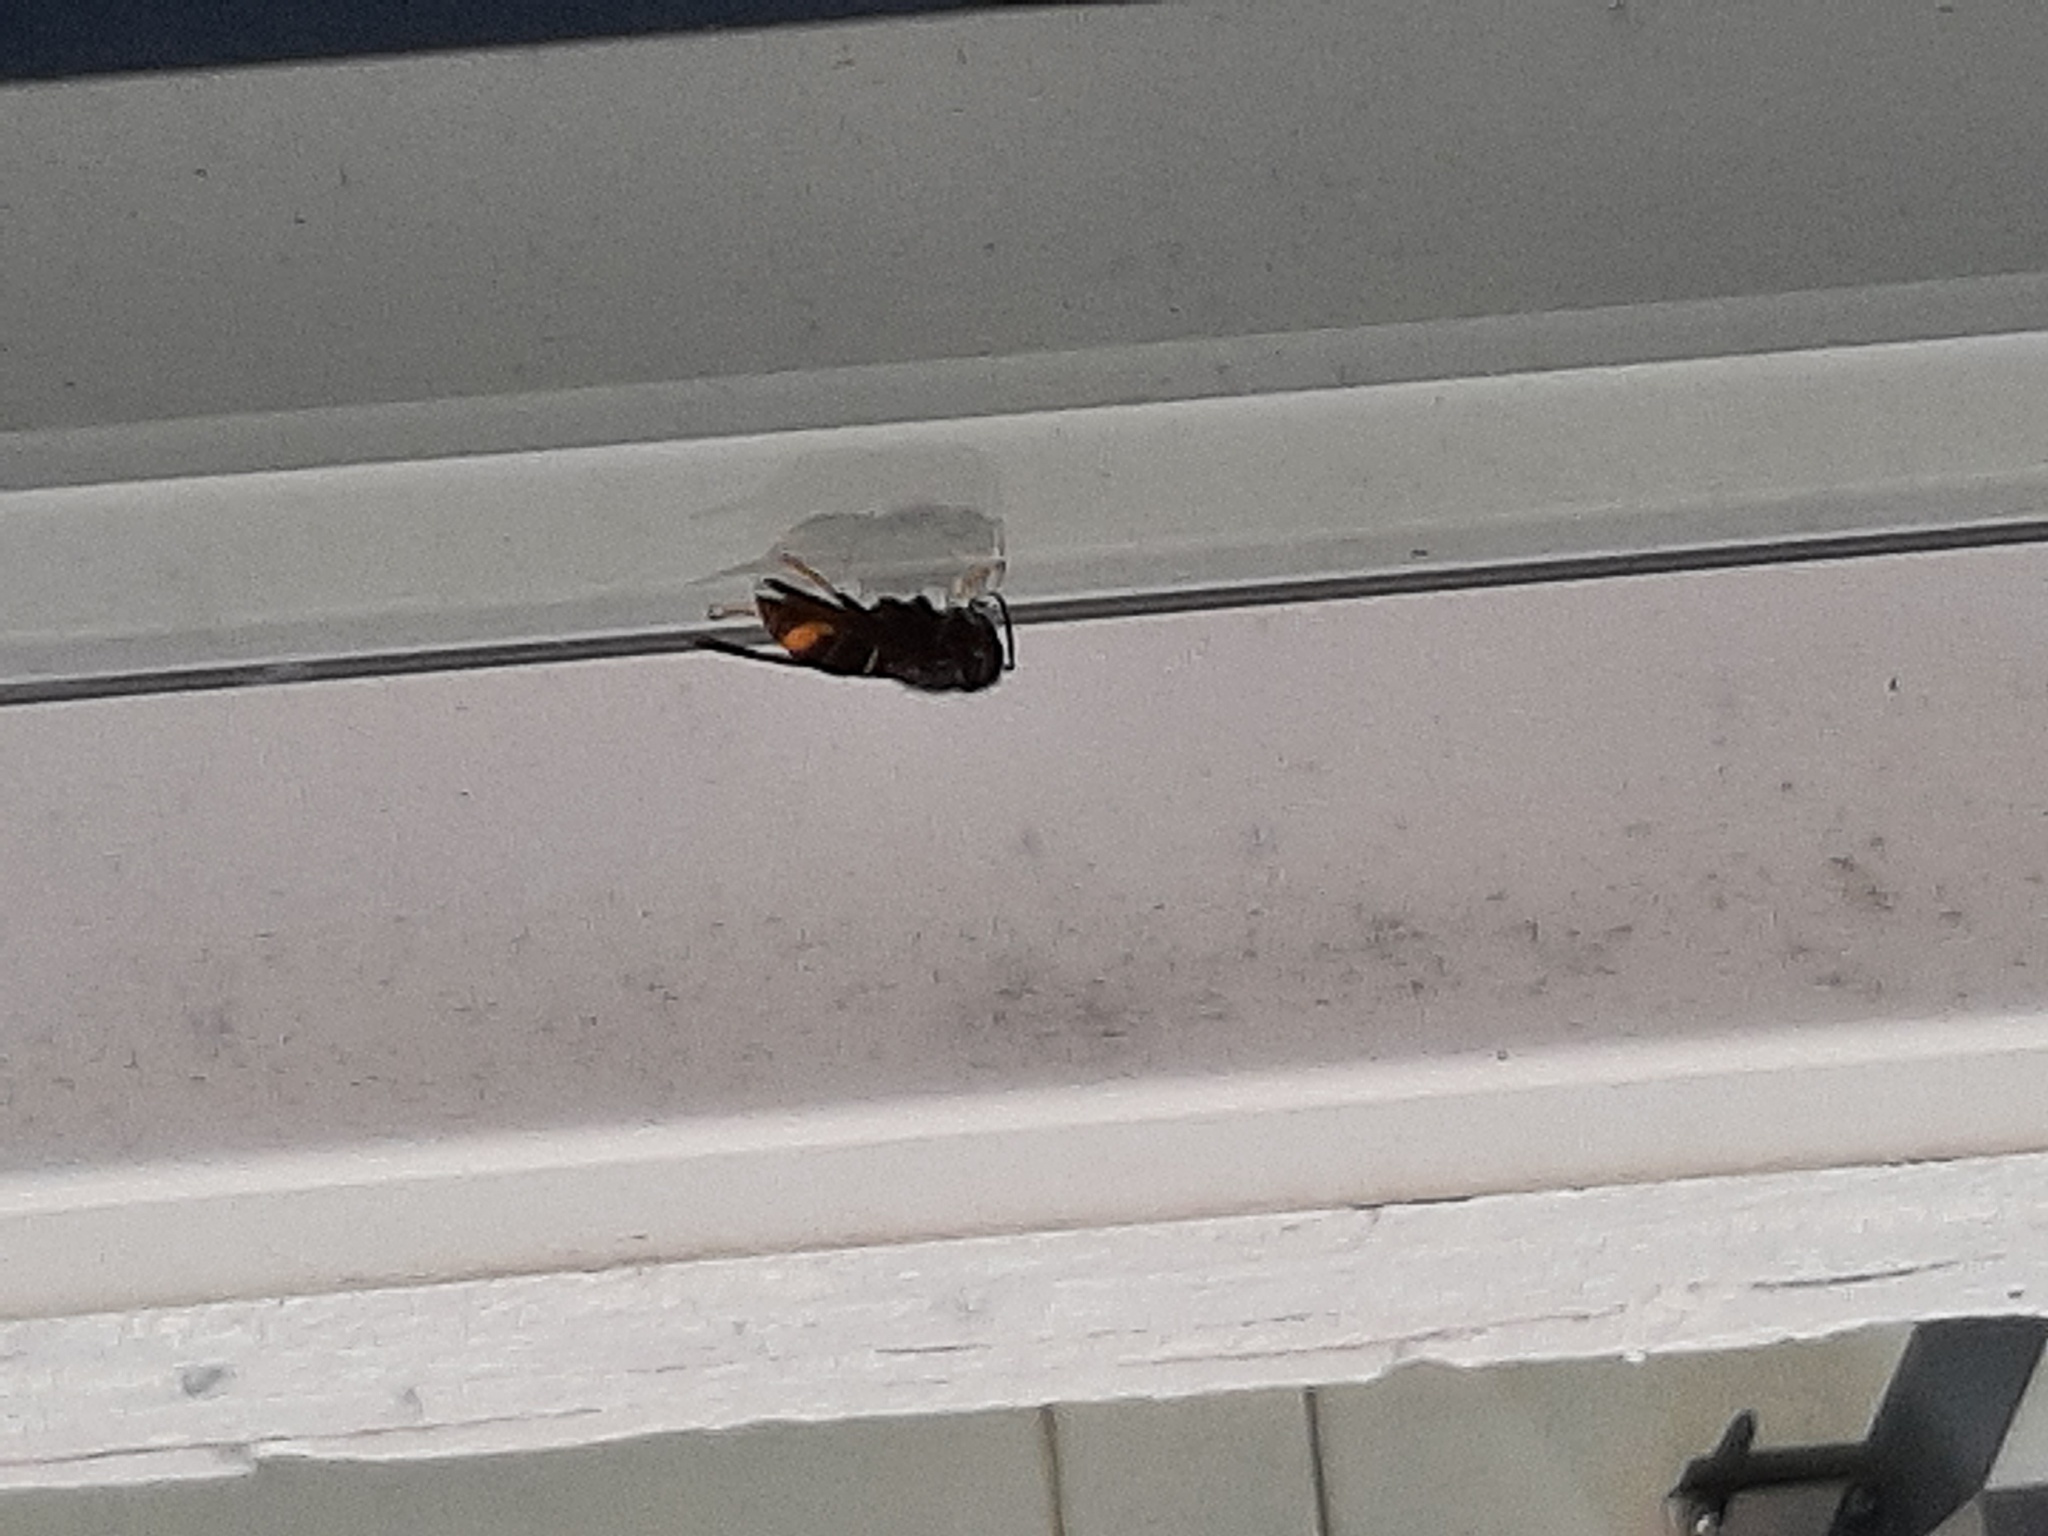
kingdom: Animalia
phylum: Arthropoda
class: Insecta
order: Hymenoptera
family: Vespidae
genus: Vespa
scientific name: Vespa velutina
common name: Asian hornet
